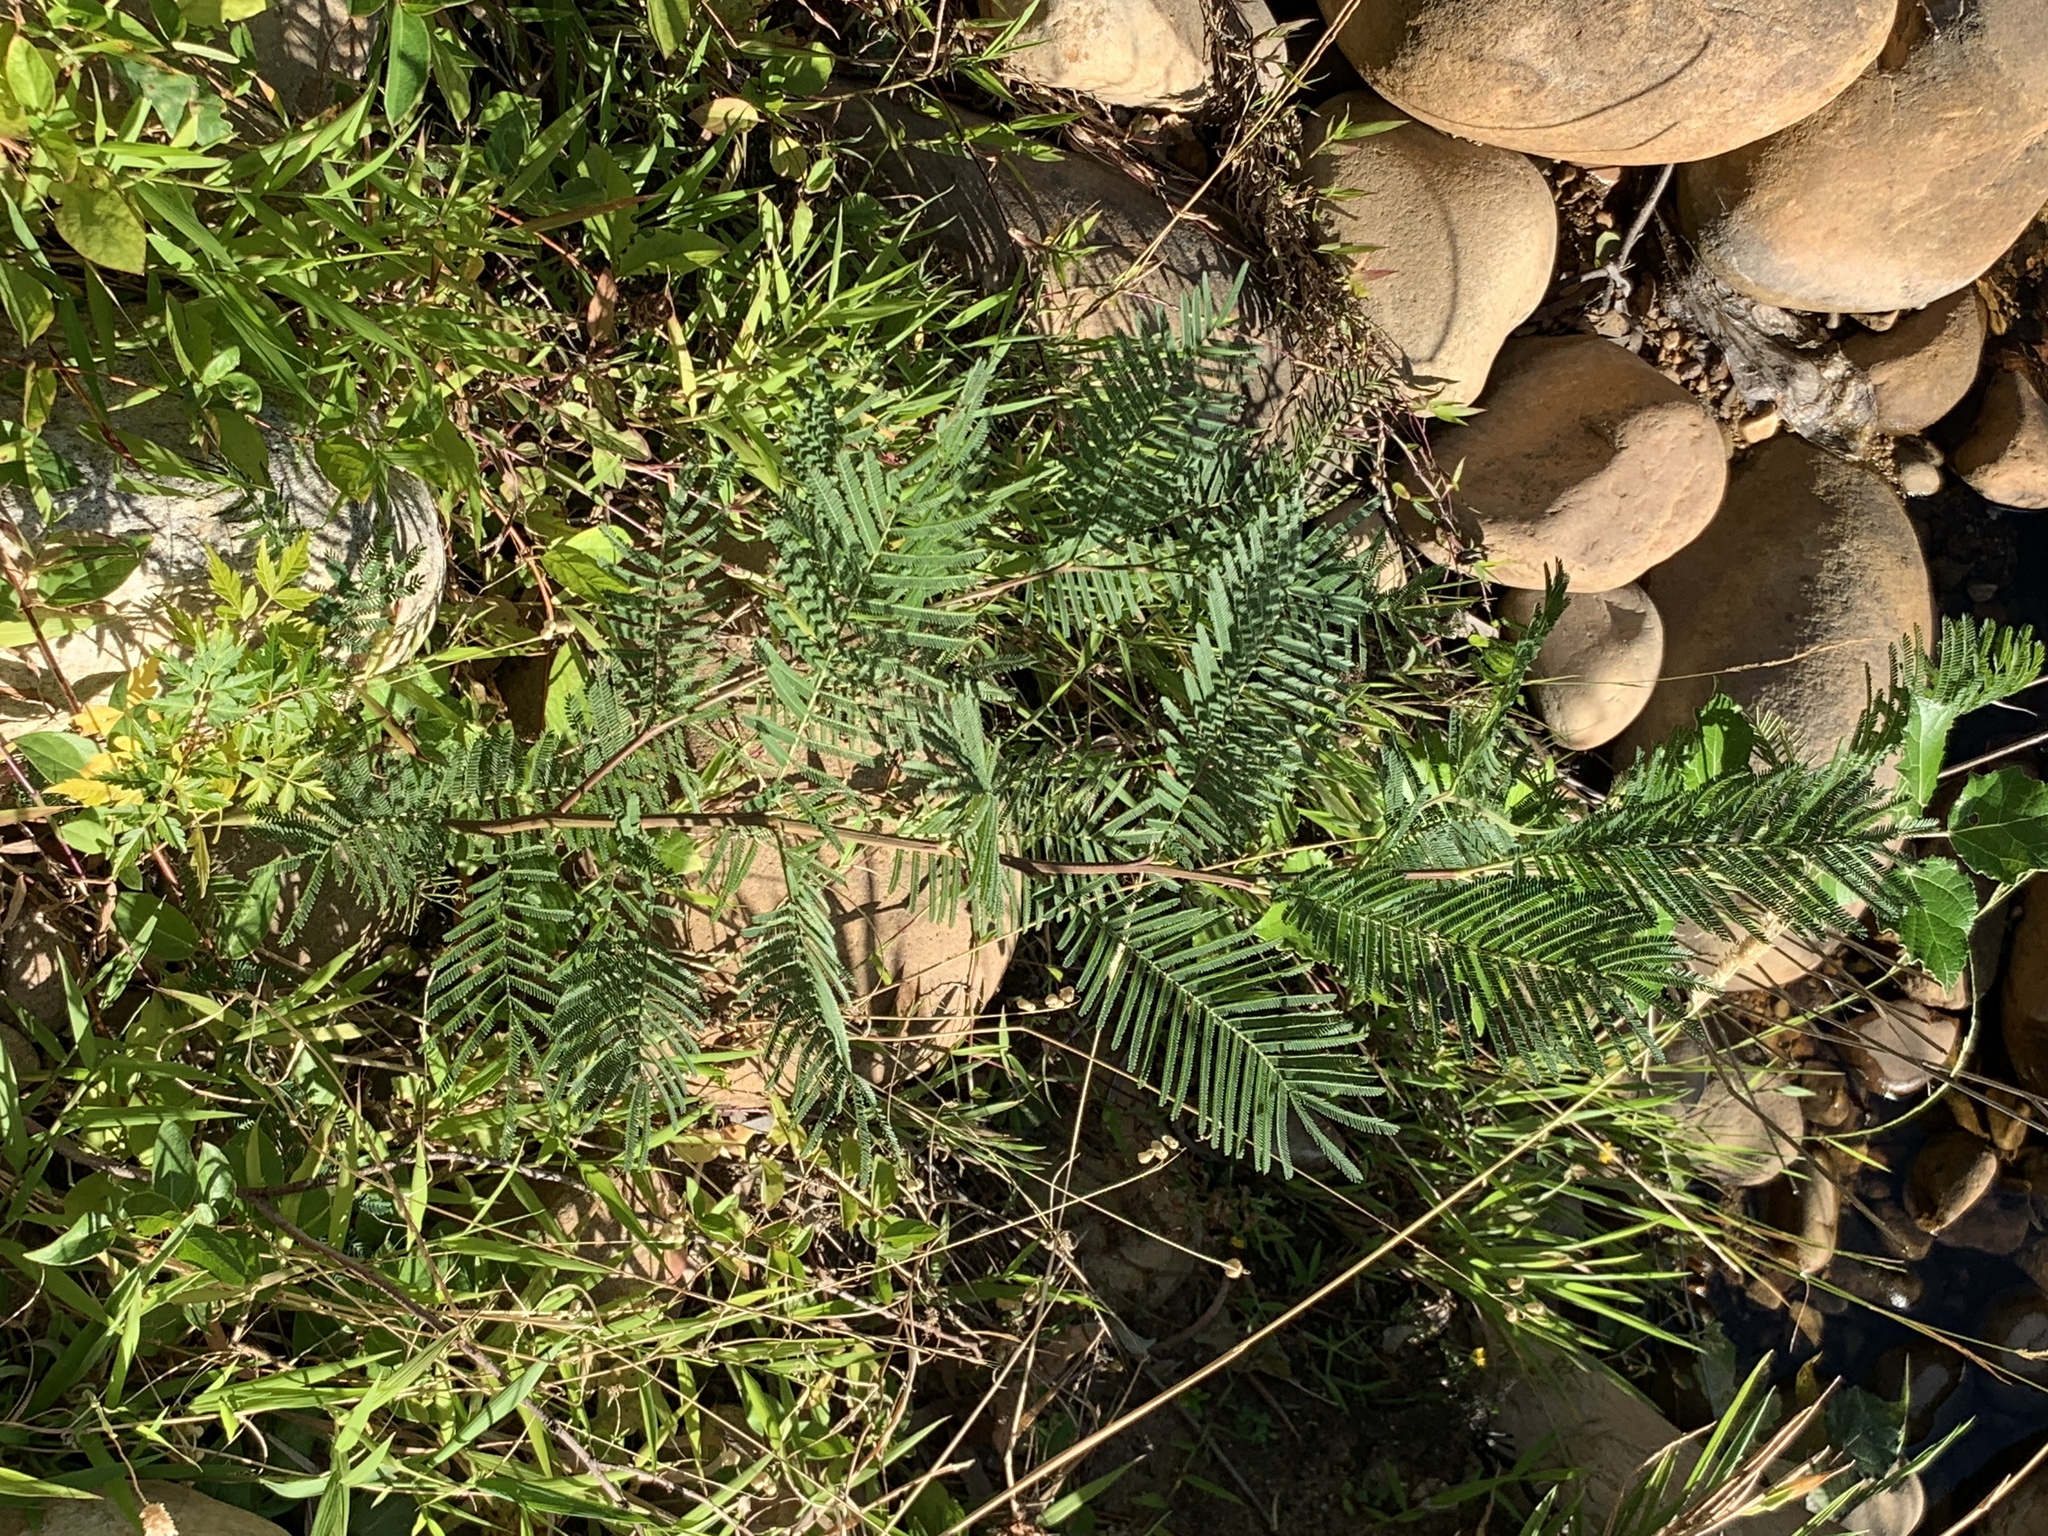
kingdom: Plantae
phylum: Tracheophyta
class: Magnoliopsida
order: Fabales
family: Fabaceae
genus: Acacia
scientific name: Acacia mearnsii
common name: Black wattle
